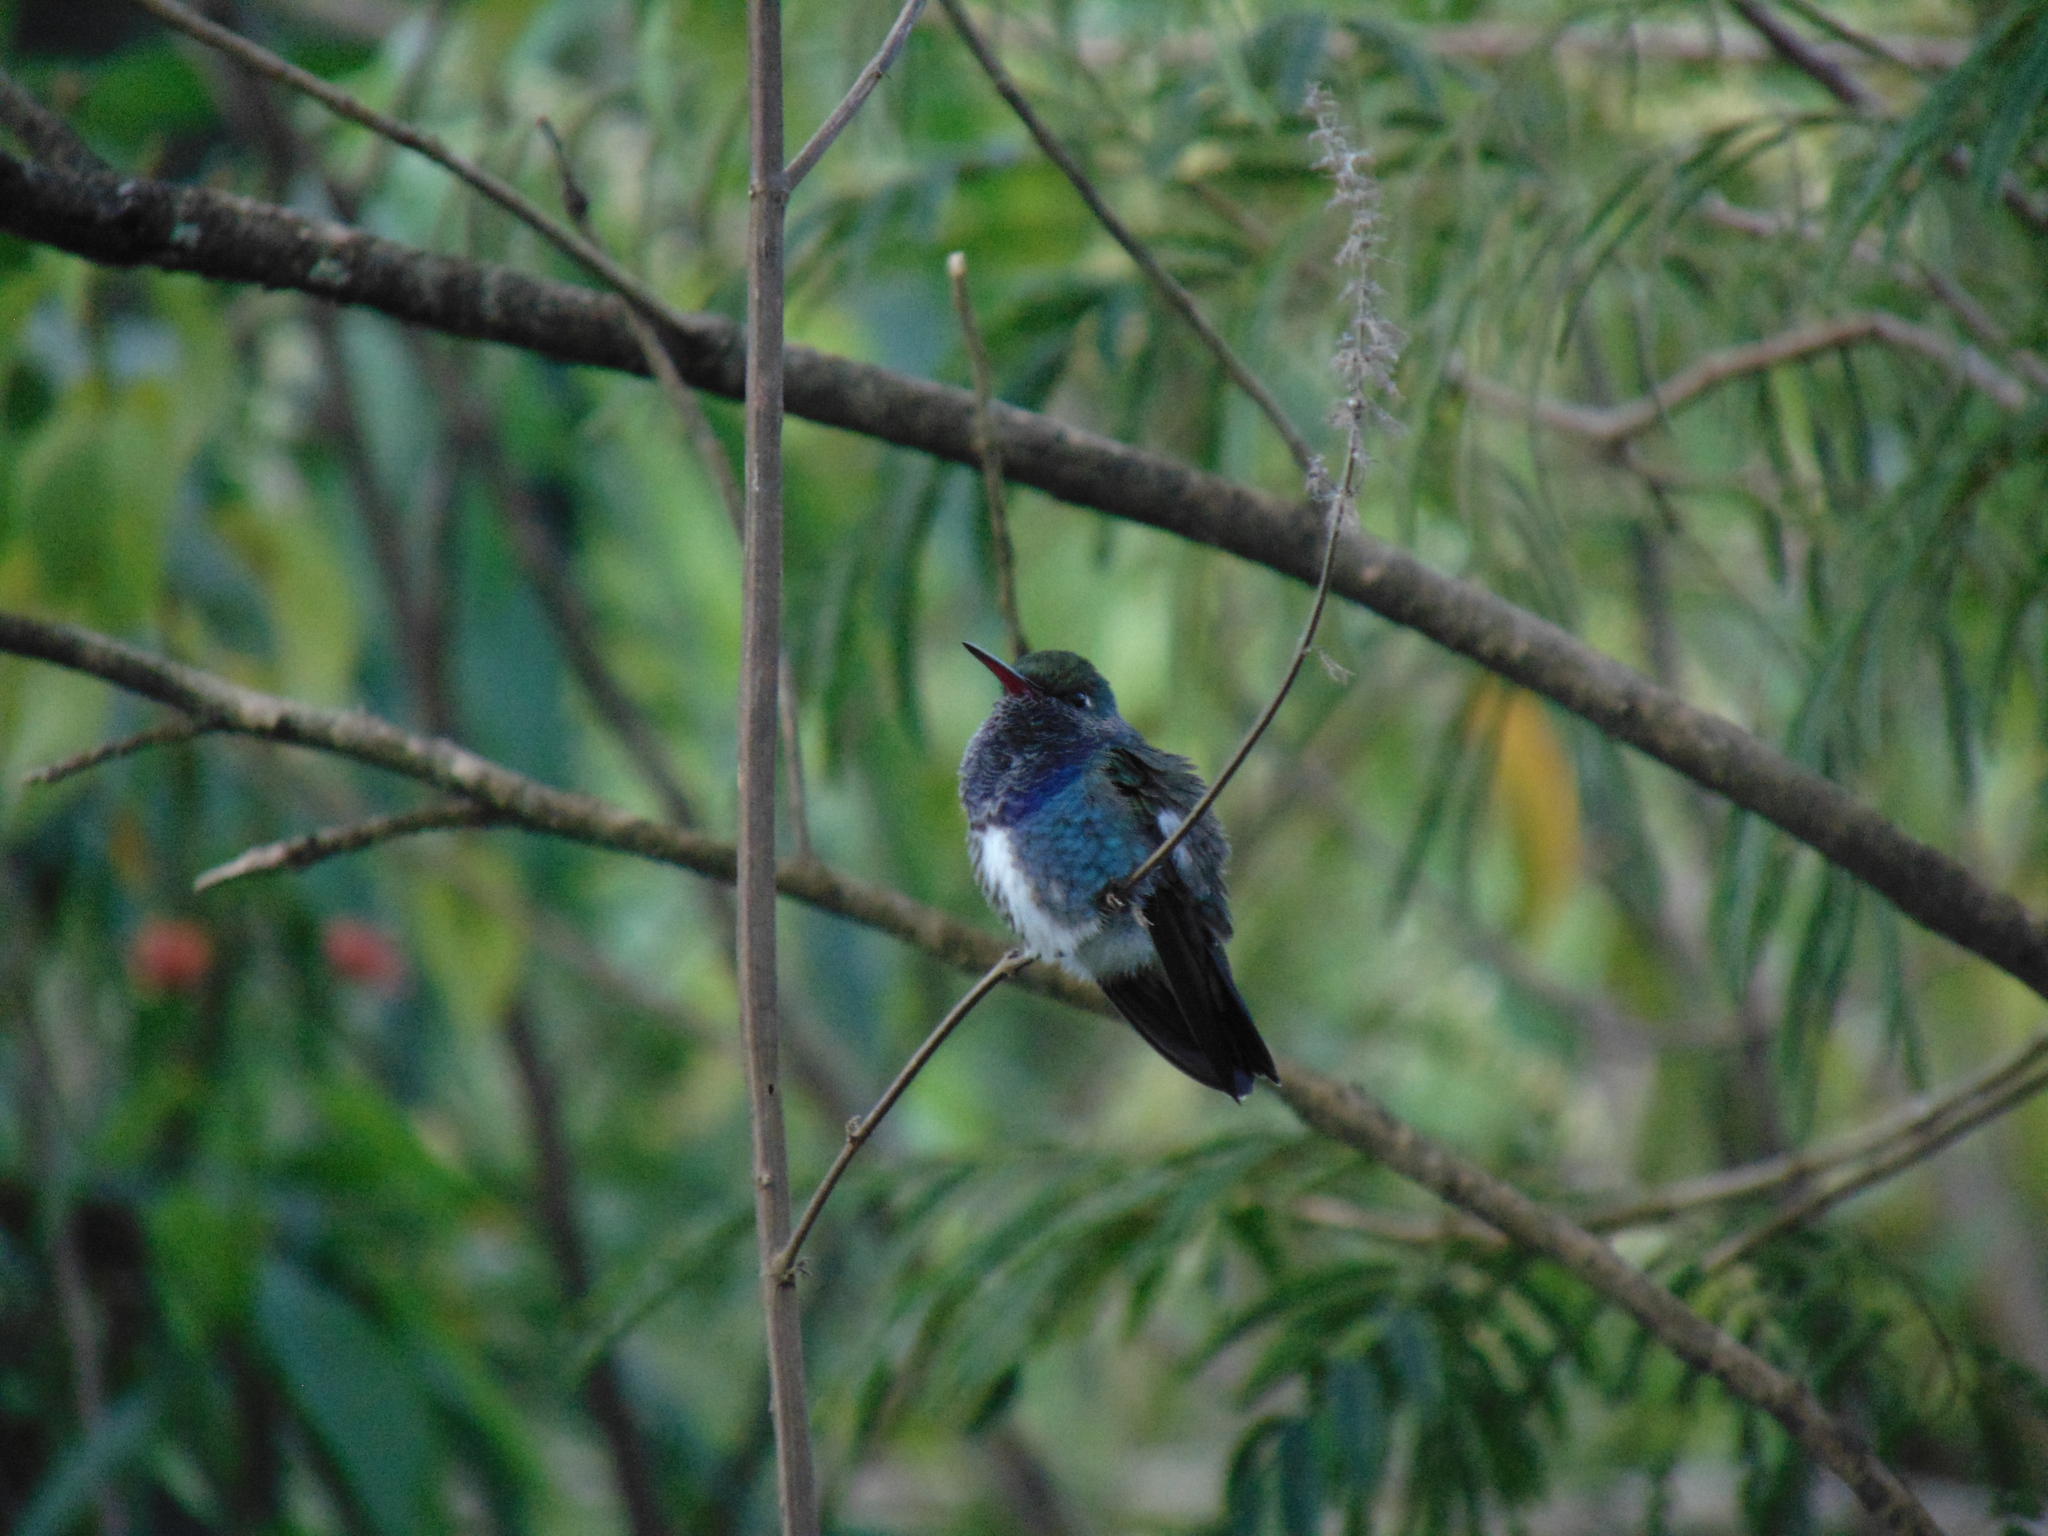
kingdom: Animalia
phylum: Chordata
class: Aves
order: Apodiformes
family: Trochilidae
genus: Chionomesa
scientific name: Chionomesa lactea
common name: Sapphire-spangled emerald
